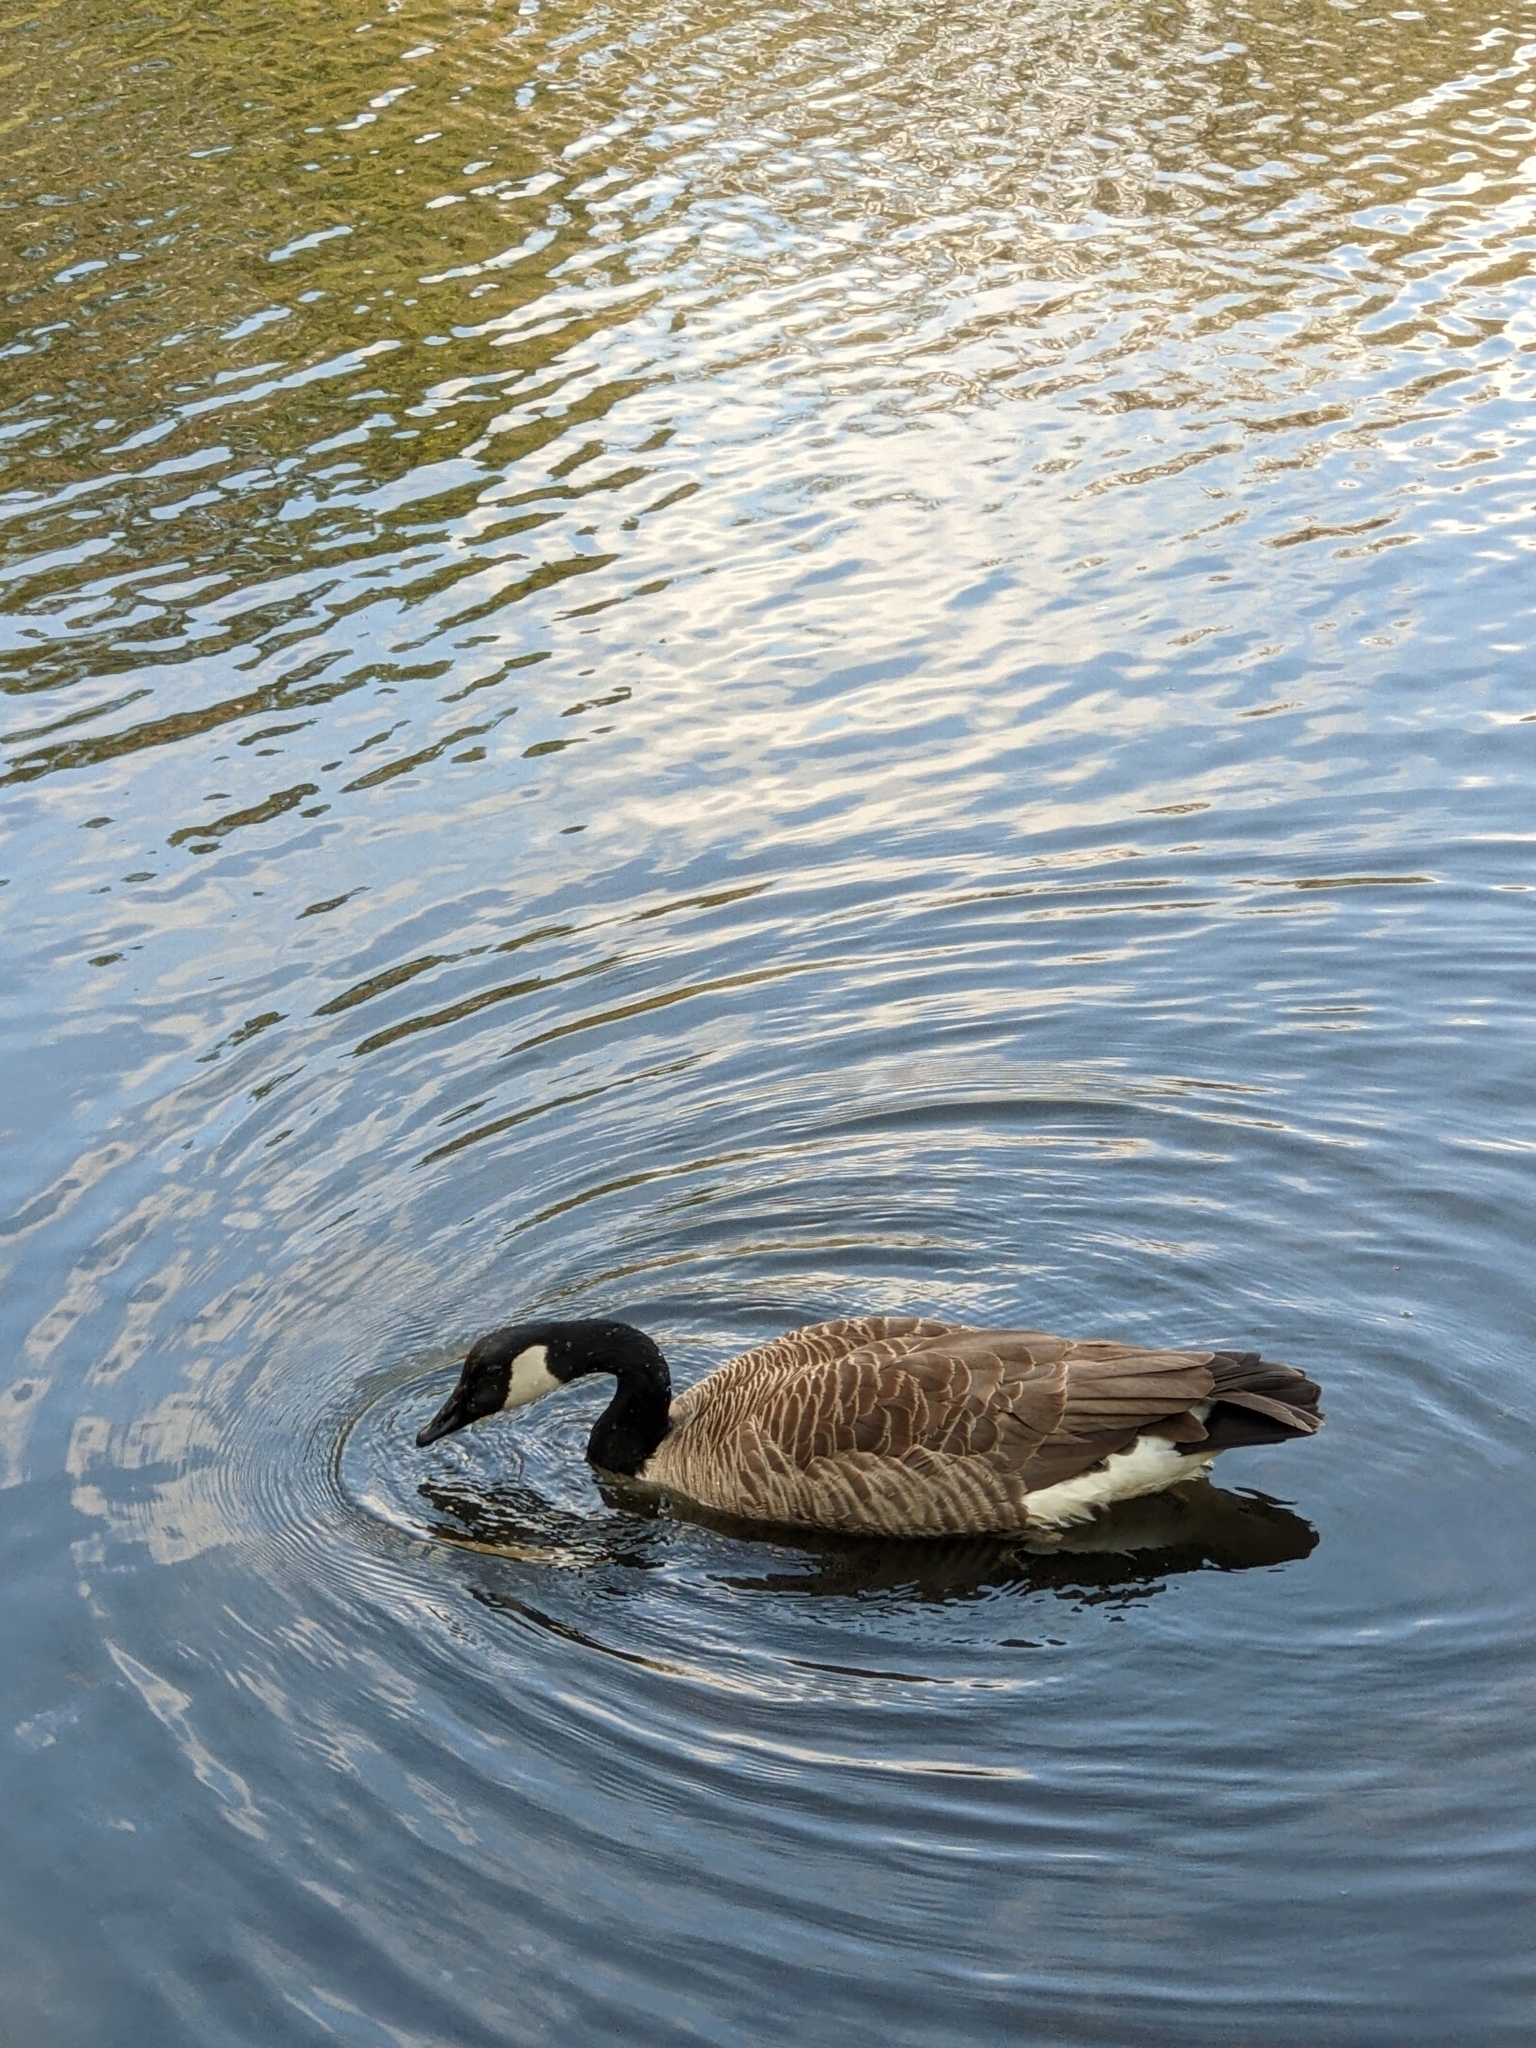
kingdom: Animalia
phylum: Chordata
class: Aves
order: Anseriformes
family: Anatidae
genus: Branta
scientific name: Branta canadensis
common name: Canada goose
